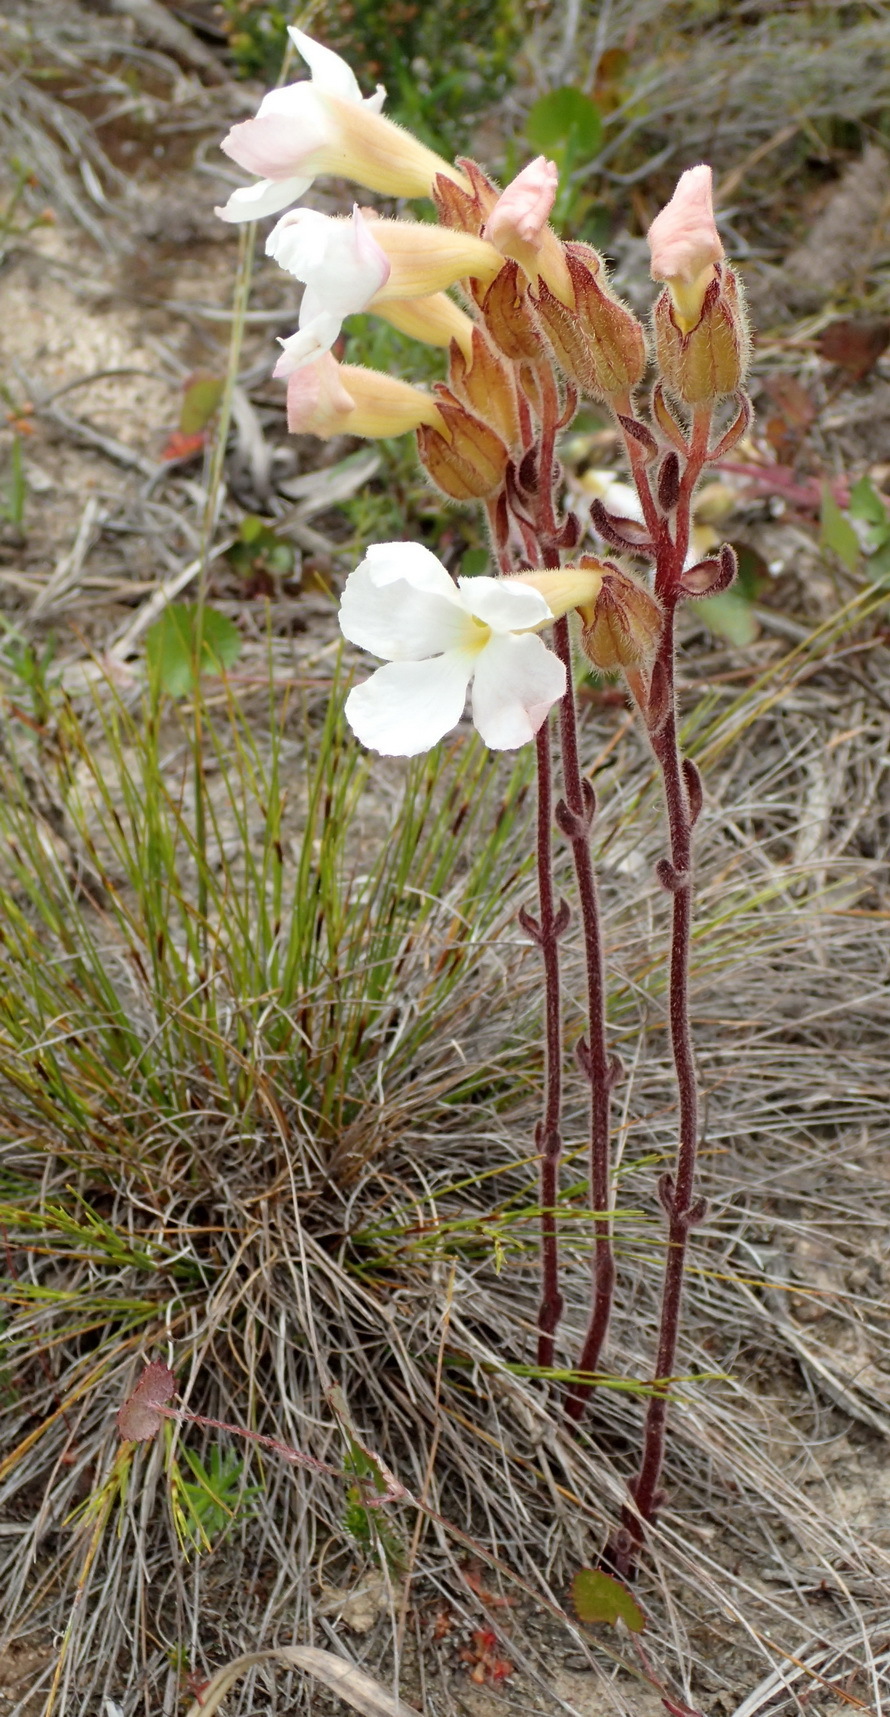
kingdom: Plantae
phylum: Tracheophyta
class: Magnoliopsida
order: Lamiales
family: Orobanchaceae
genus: Harveya
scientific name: Harveya capensis
